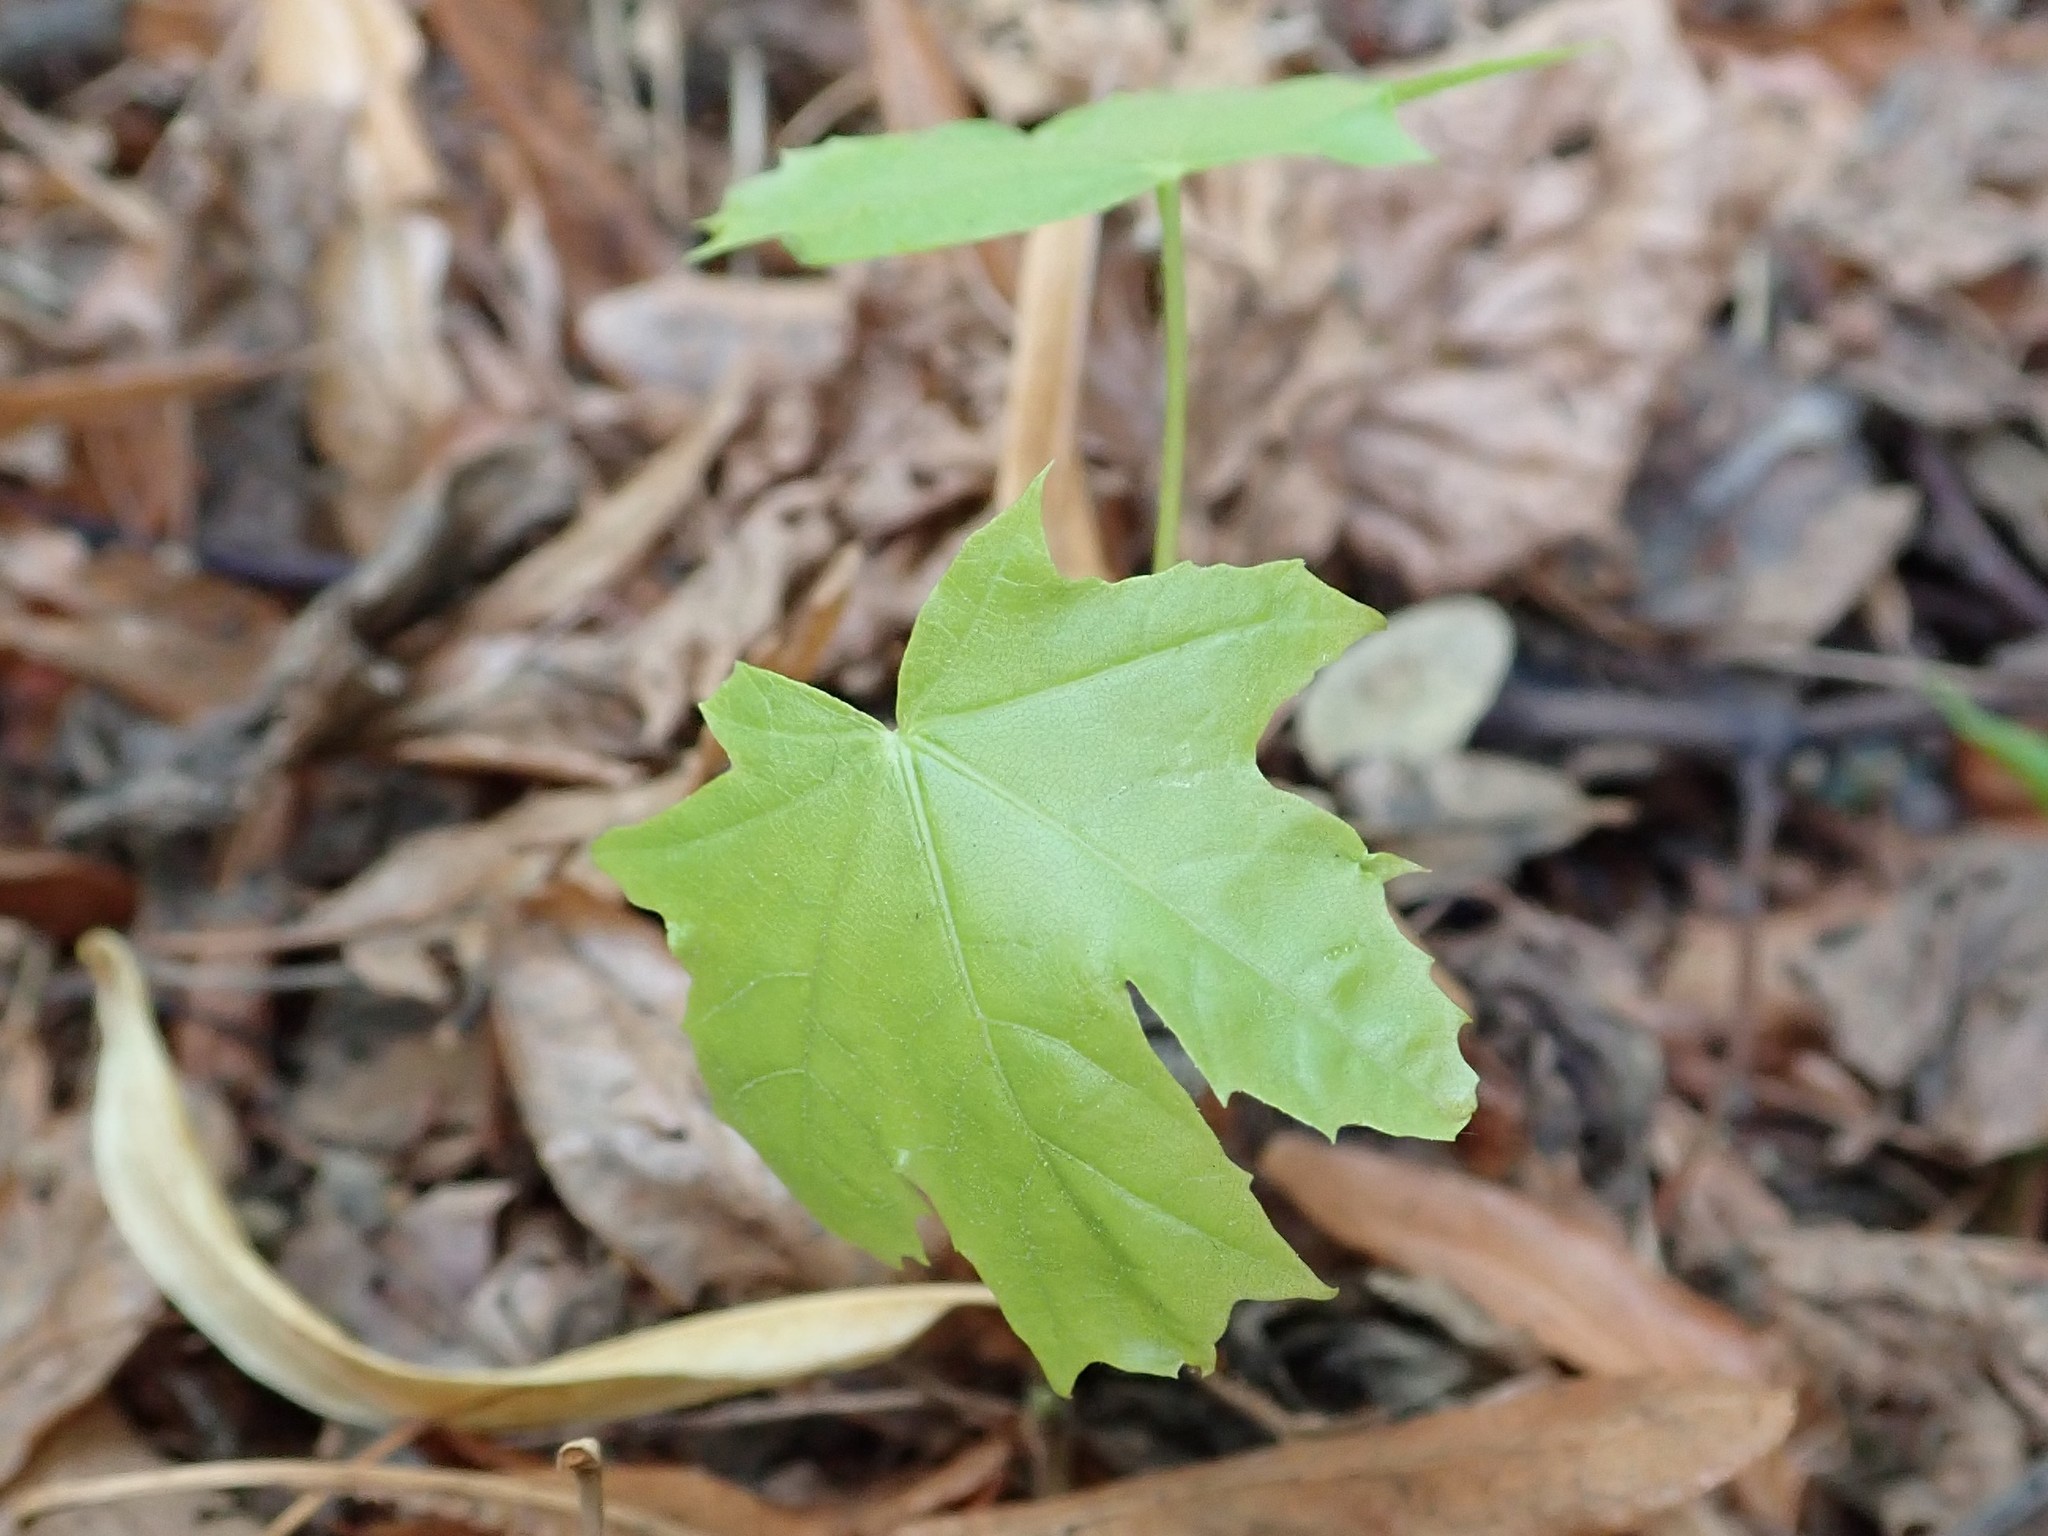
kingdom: Plantae
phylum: Tracheophyta
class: Magnoliopsida
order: Sapindales
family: Sapindaceae
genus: Acer
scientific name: Acer platanoides
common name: Norway maple
